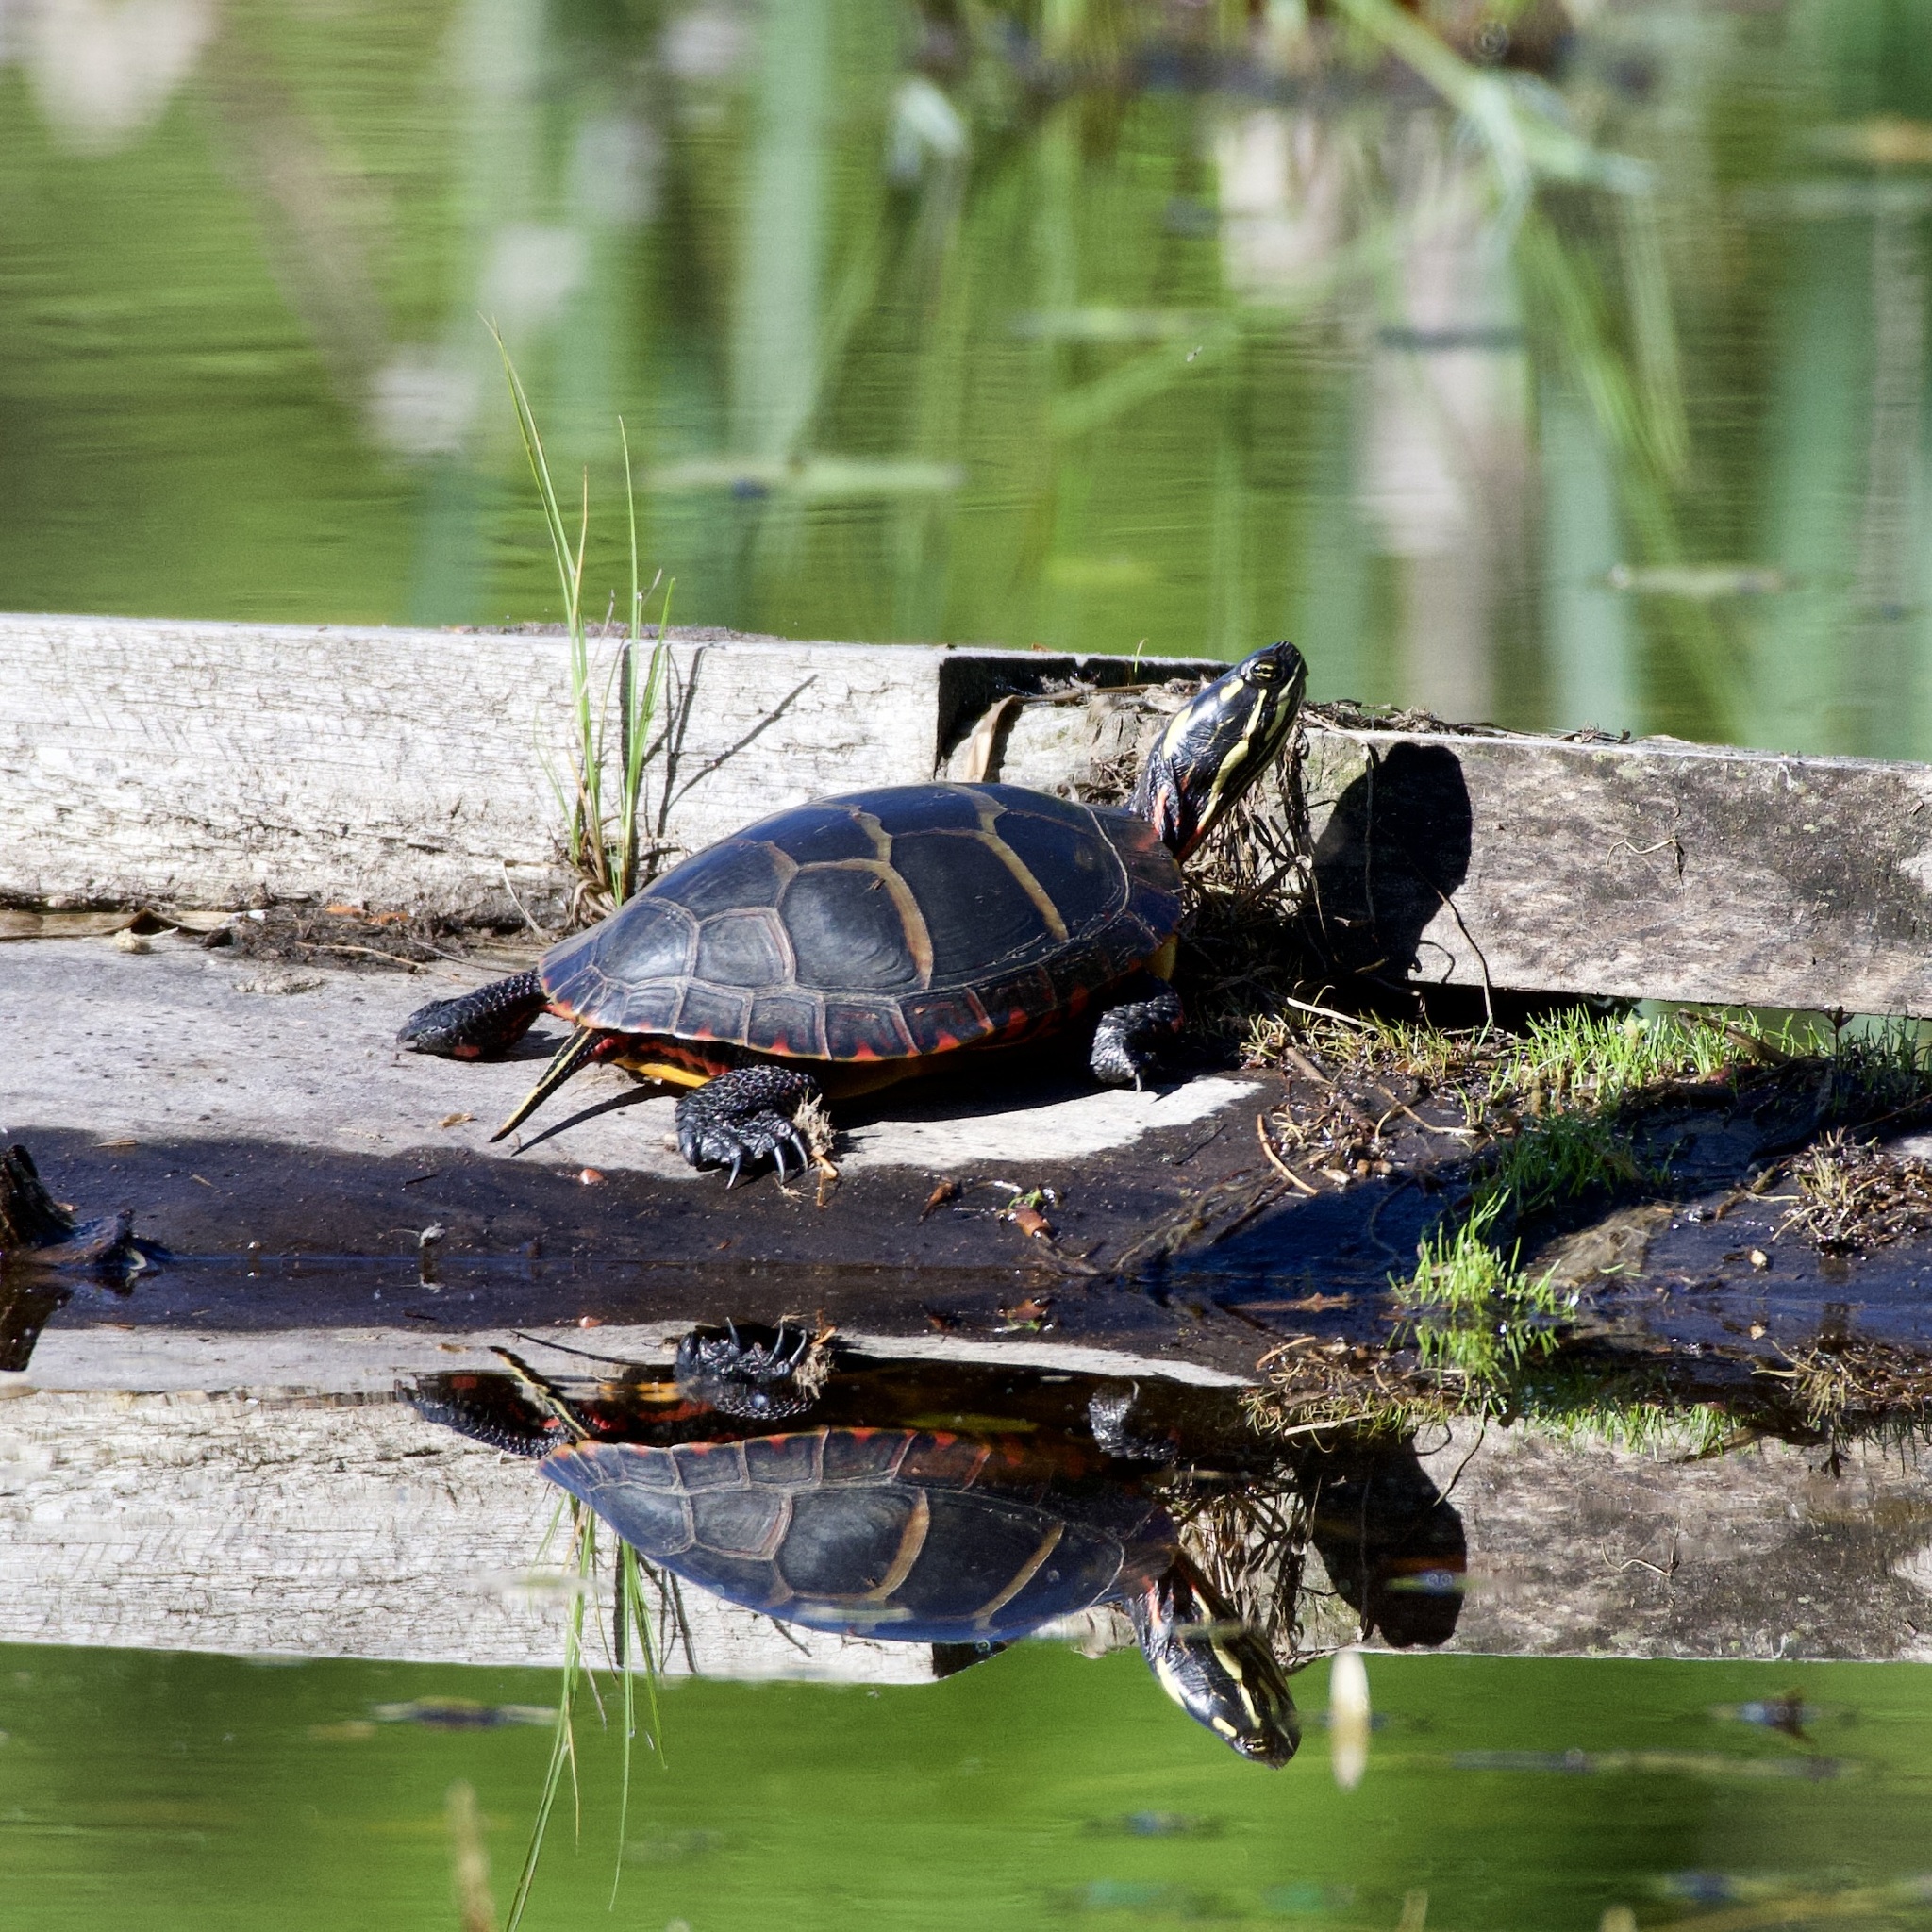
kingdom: Animalia
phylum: Chordata
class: Testudines
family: Emydidae
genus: Chrysemys
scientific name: Chrysemys picta
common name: Painted turtle
